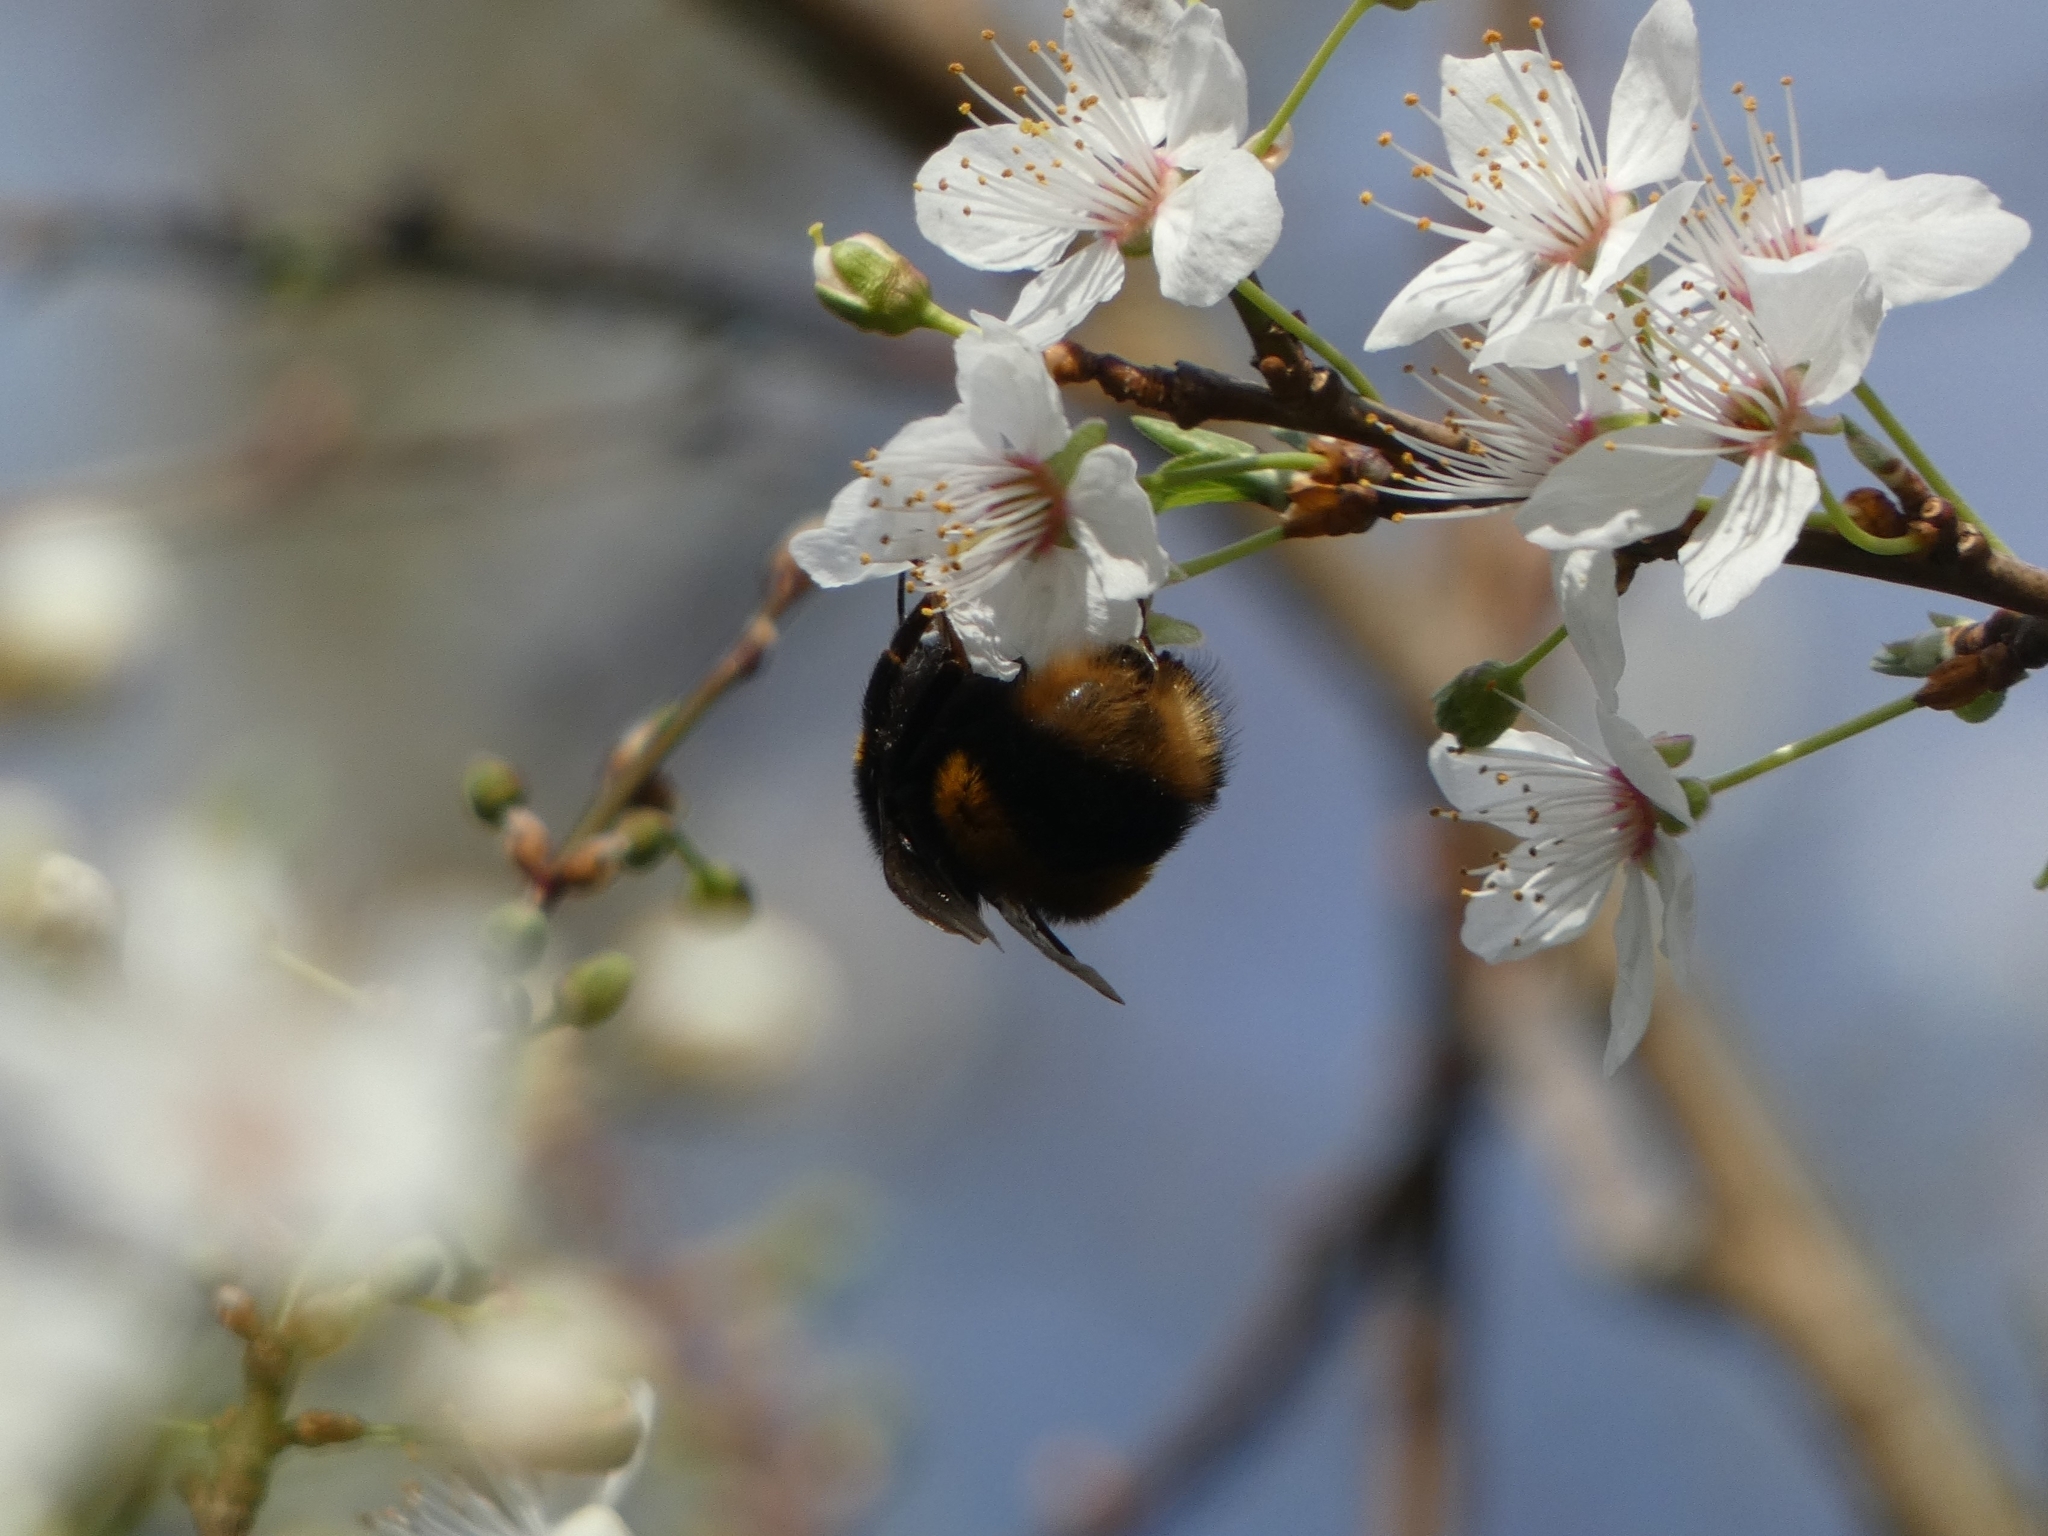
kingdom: Animalia
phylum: Arthropoda
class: Insecta
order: Hymenoptera
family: Apidae
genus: Bombus
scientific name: Bombus terrestris
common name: Buff-tailed bumblebee
